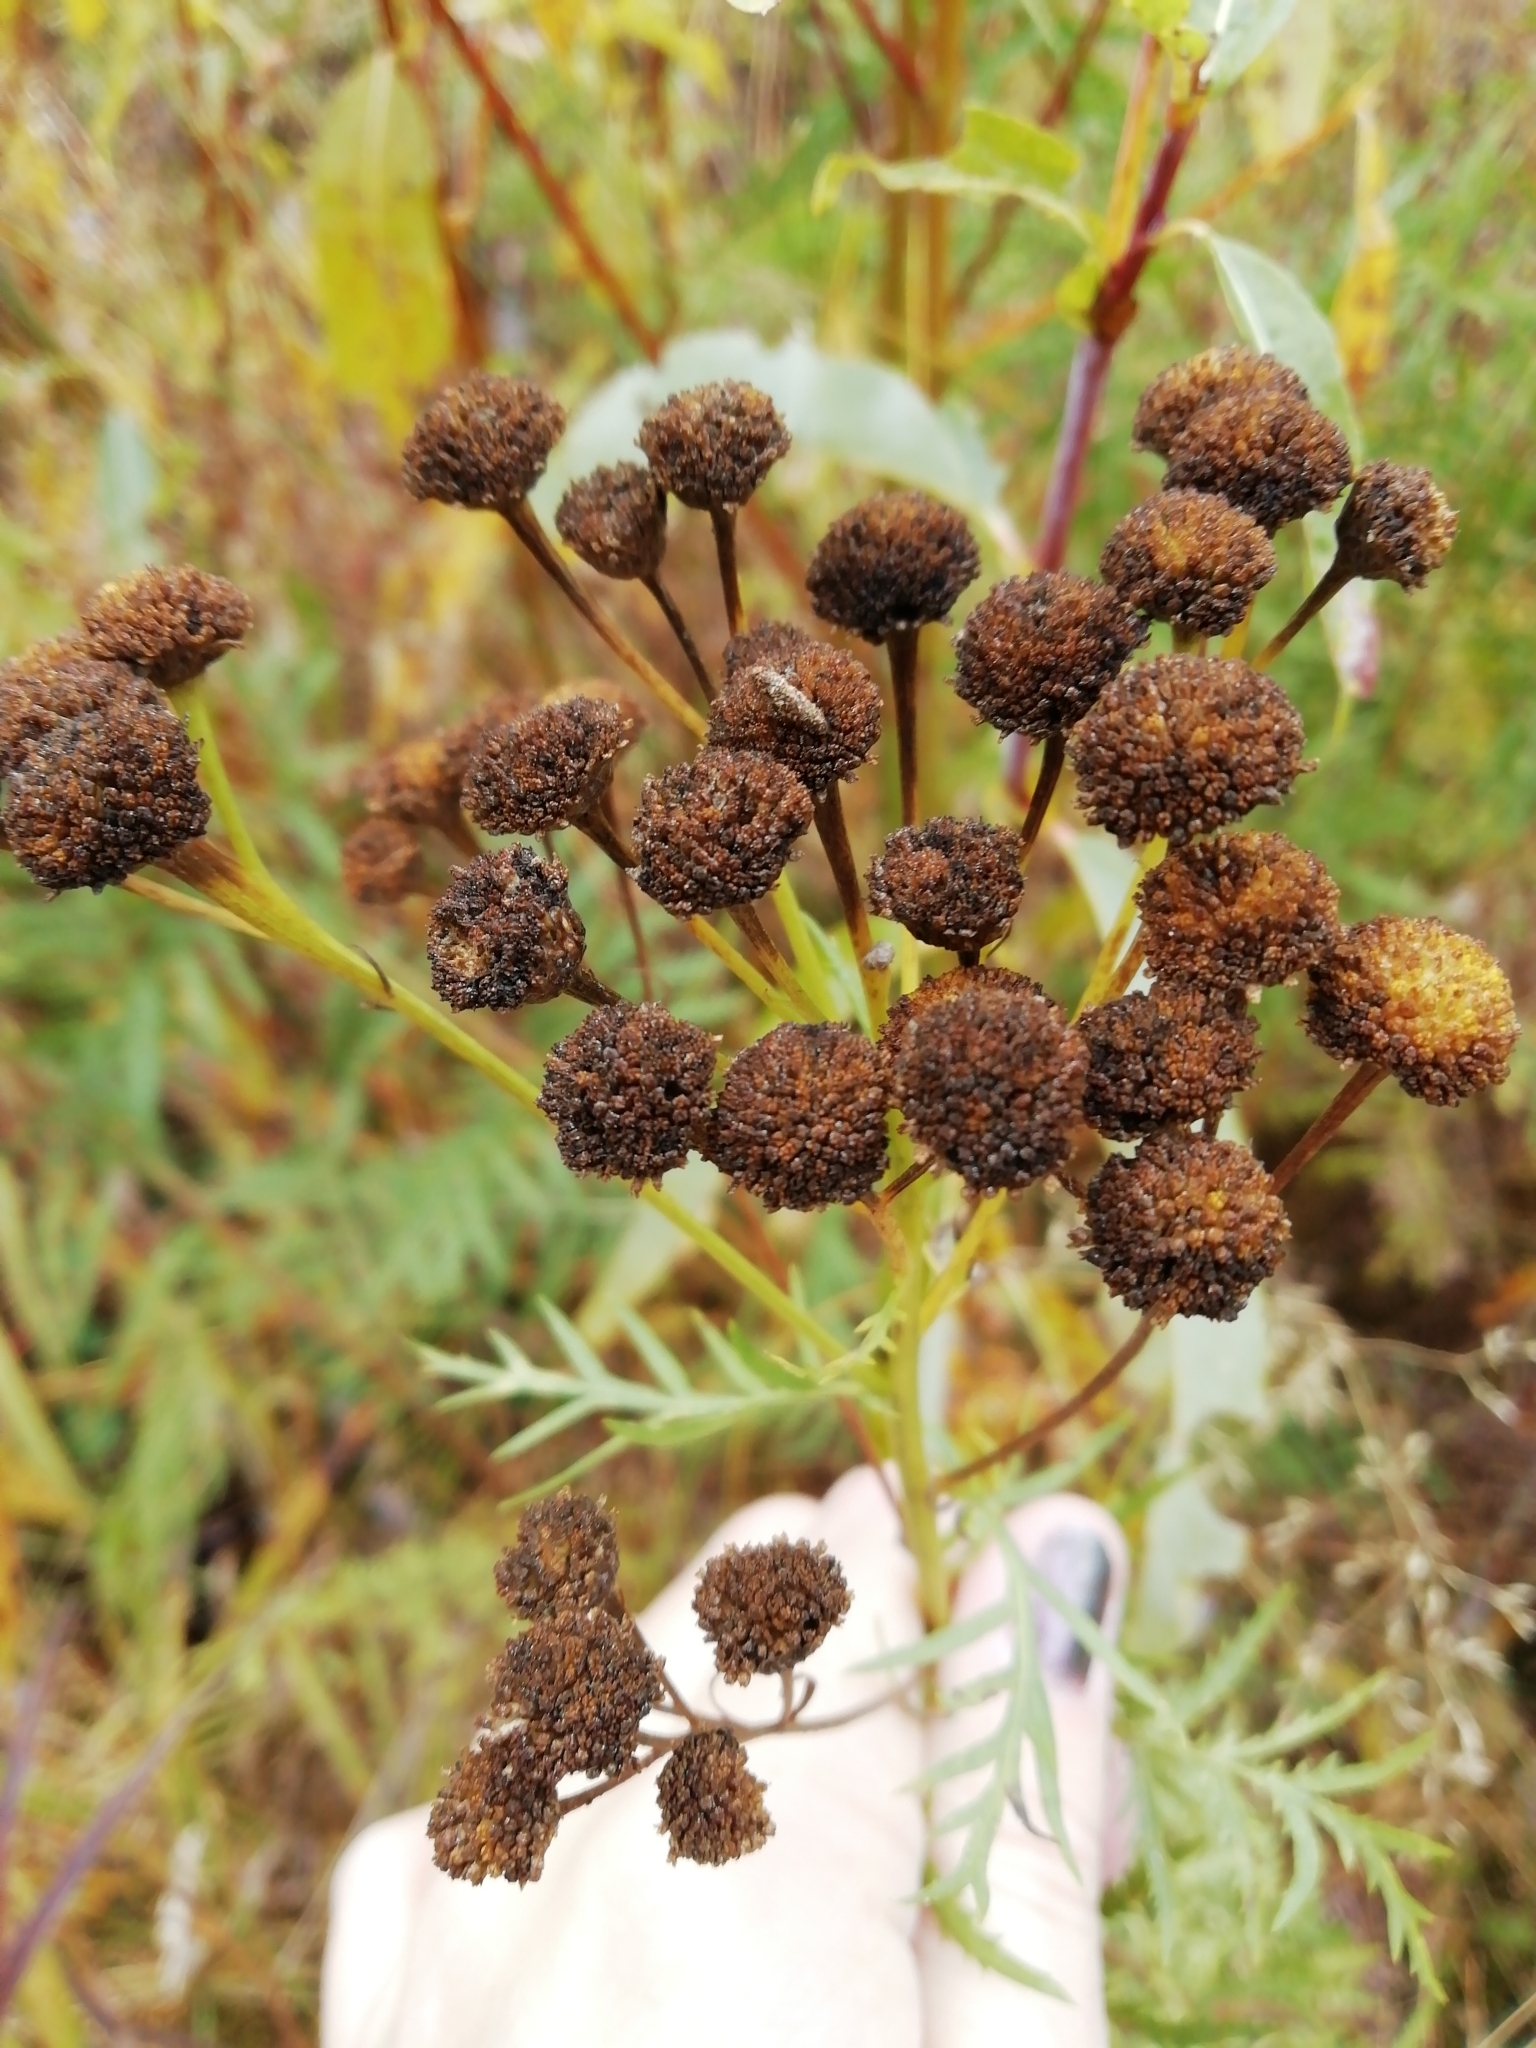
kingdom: Plantae
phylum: Tracheophyta
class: Magnoliopsida
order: Asterales
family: Asteraceae
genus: Tanacetum
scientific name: Tanacetum vulgare
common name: Common tansy
